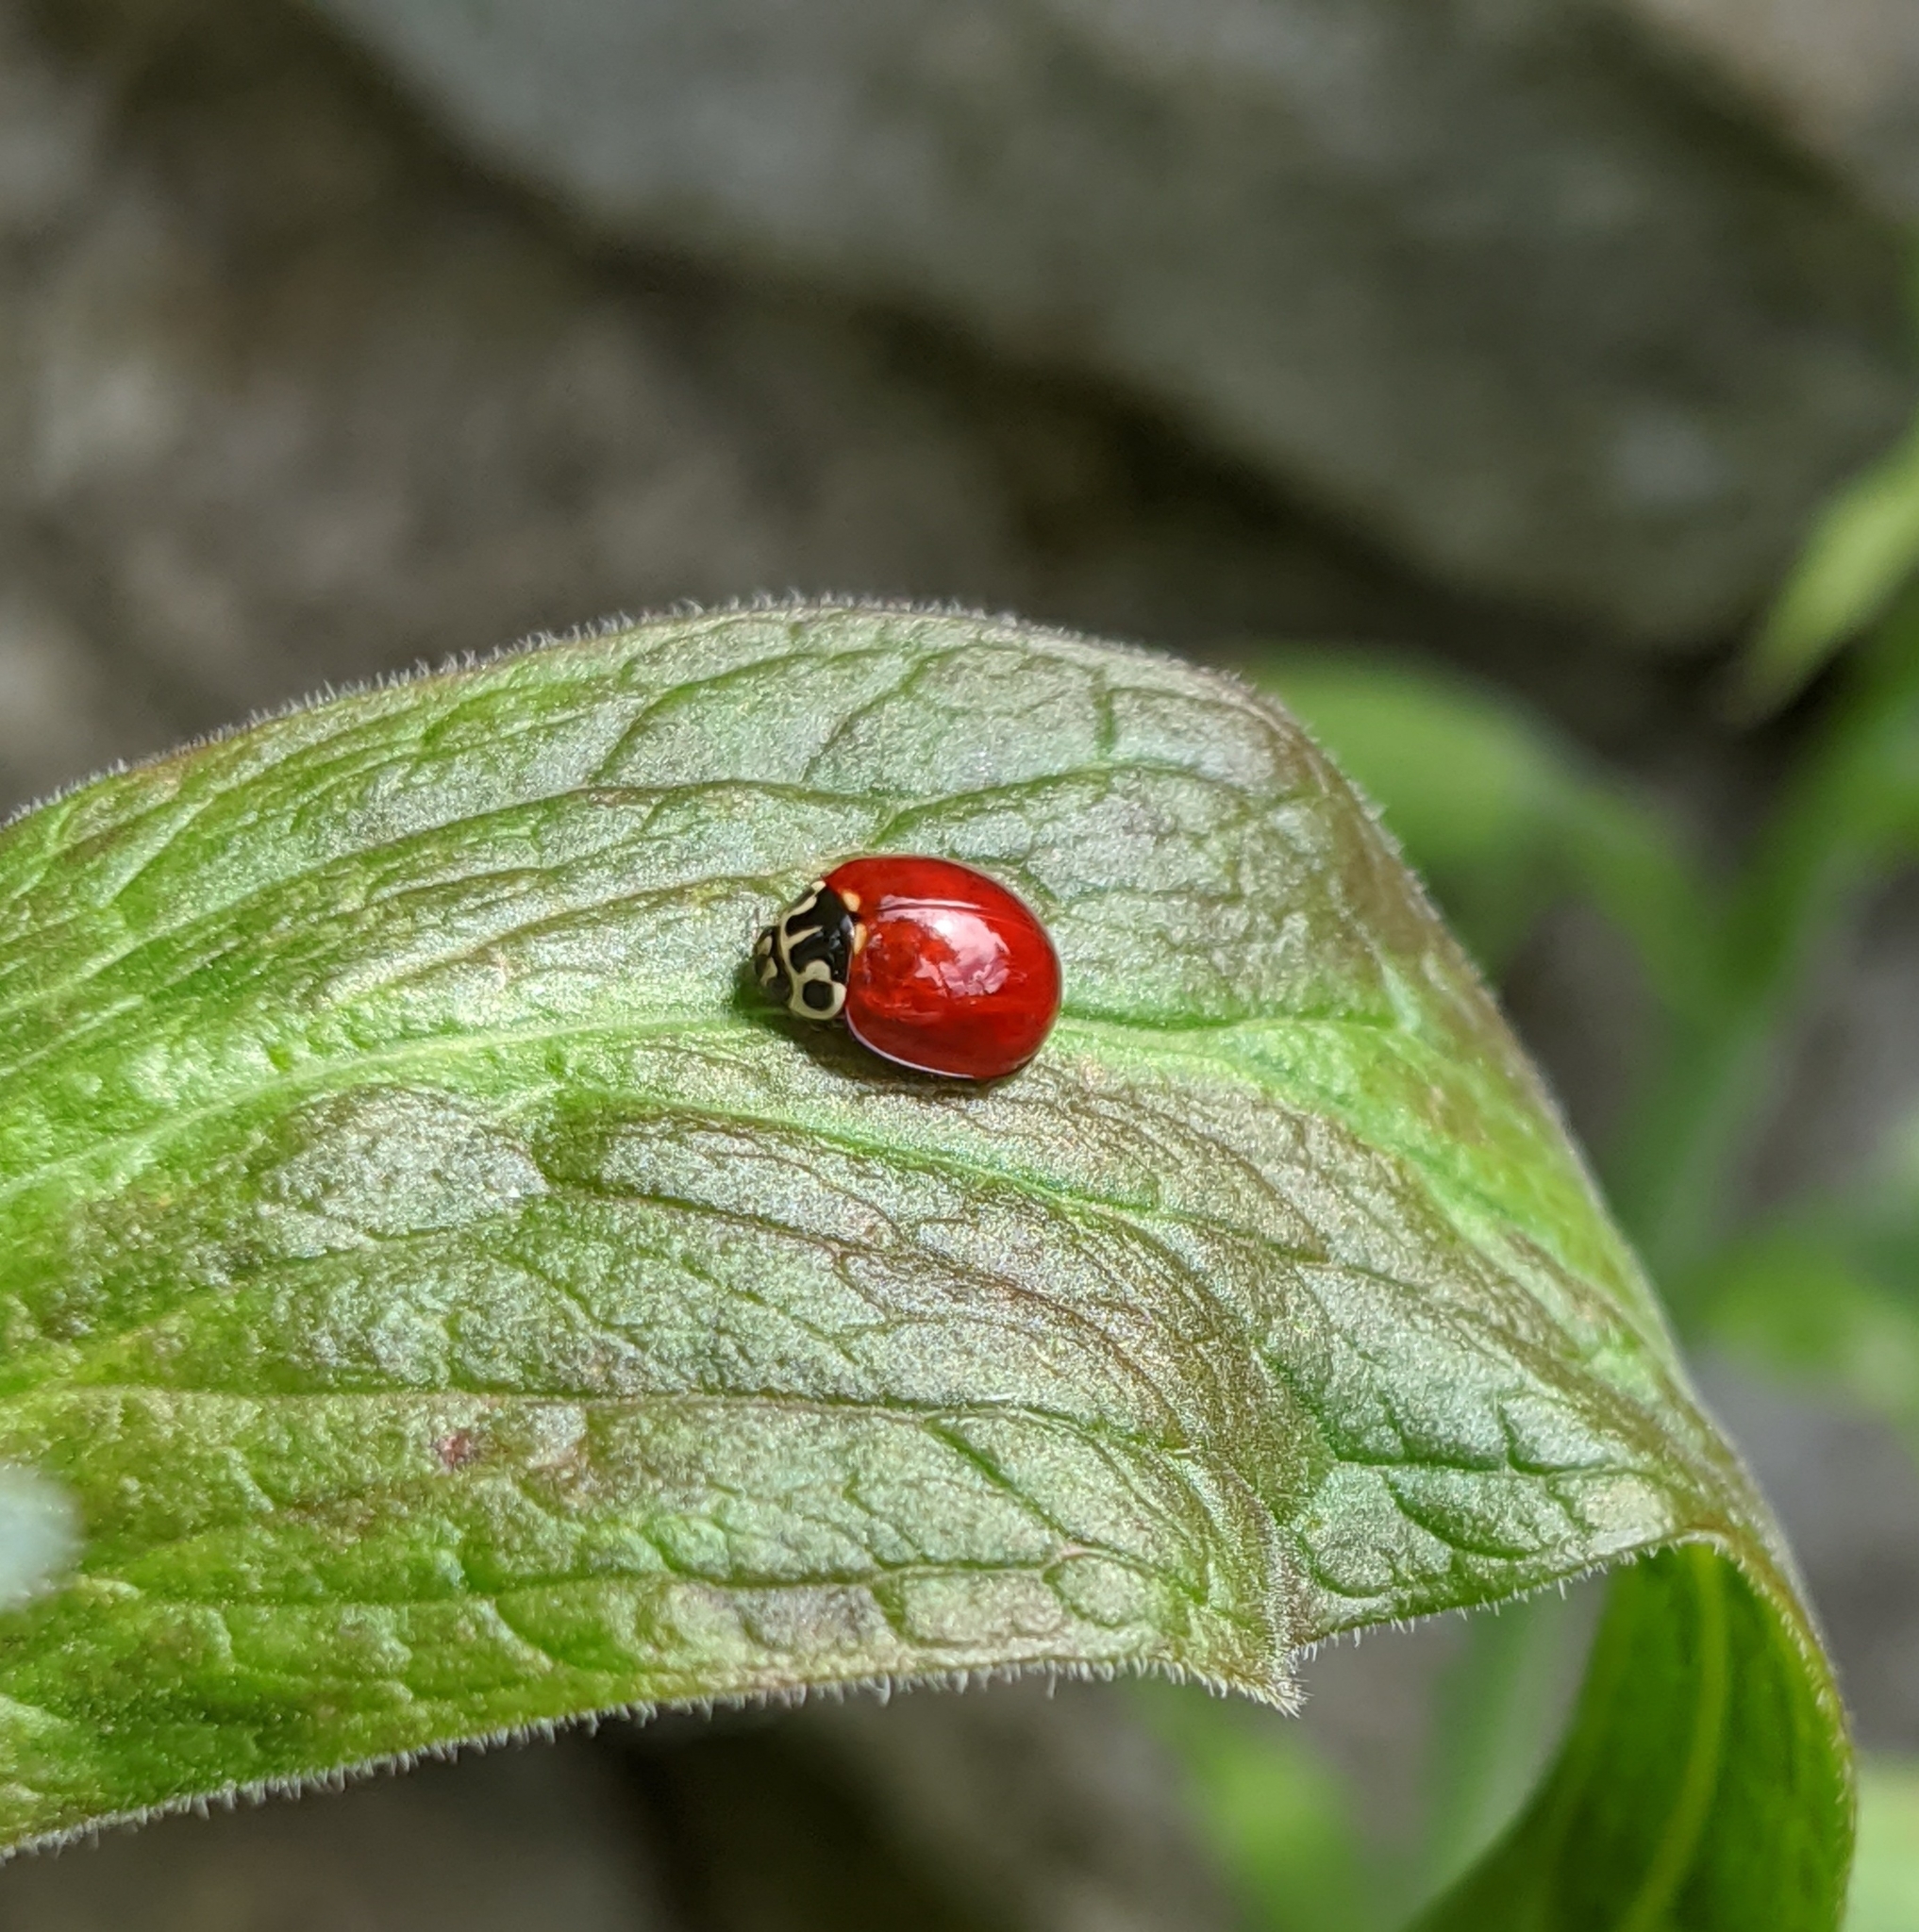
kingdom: Animalia
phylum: Arthropoda
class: Insecta
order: Coleoptera
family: Coccinellidae
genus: Cycloneda
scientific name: Cycloneda polita
